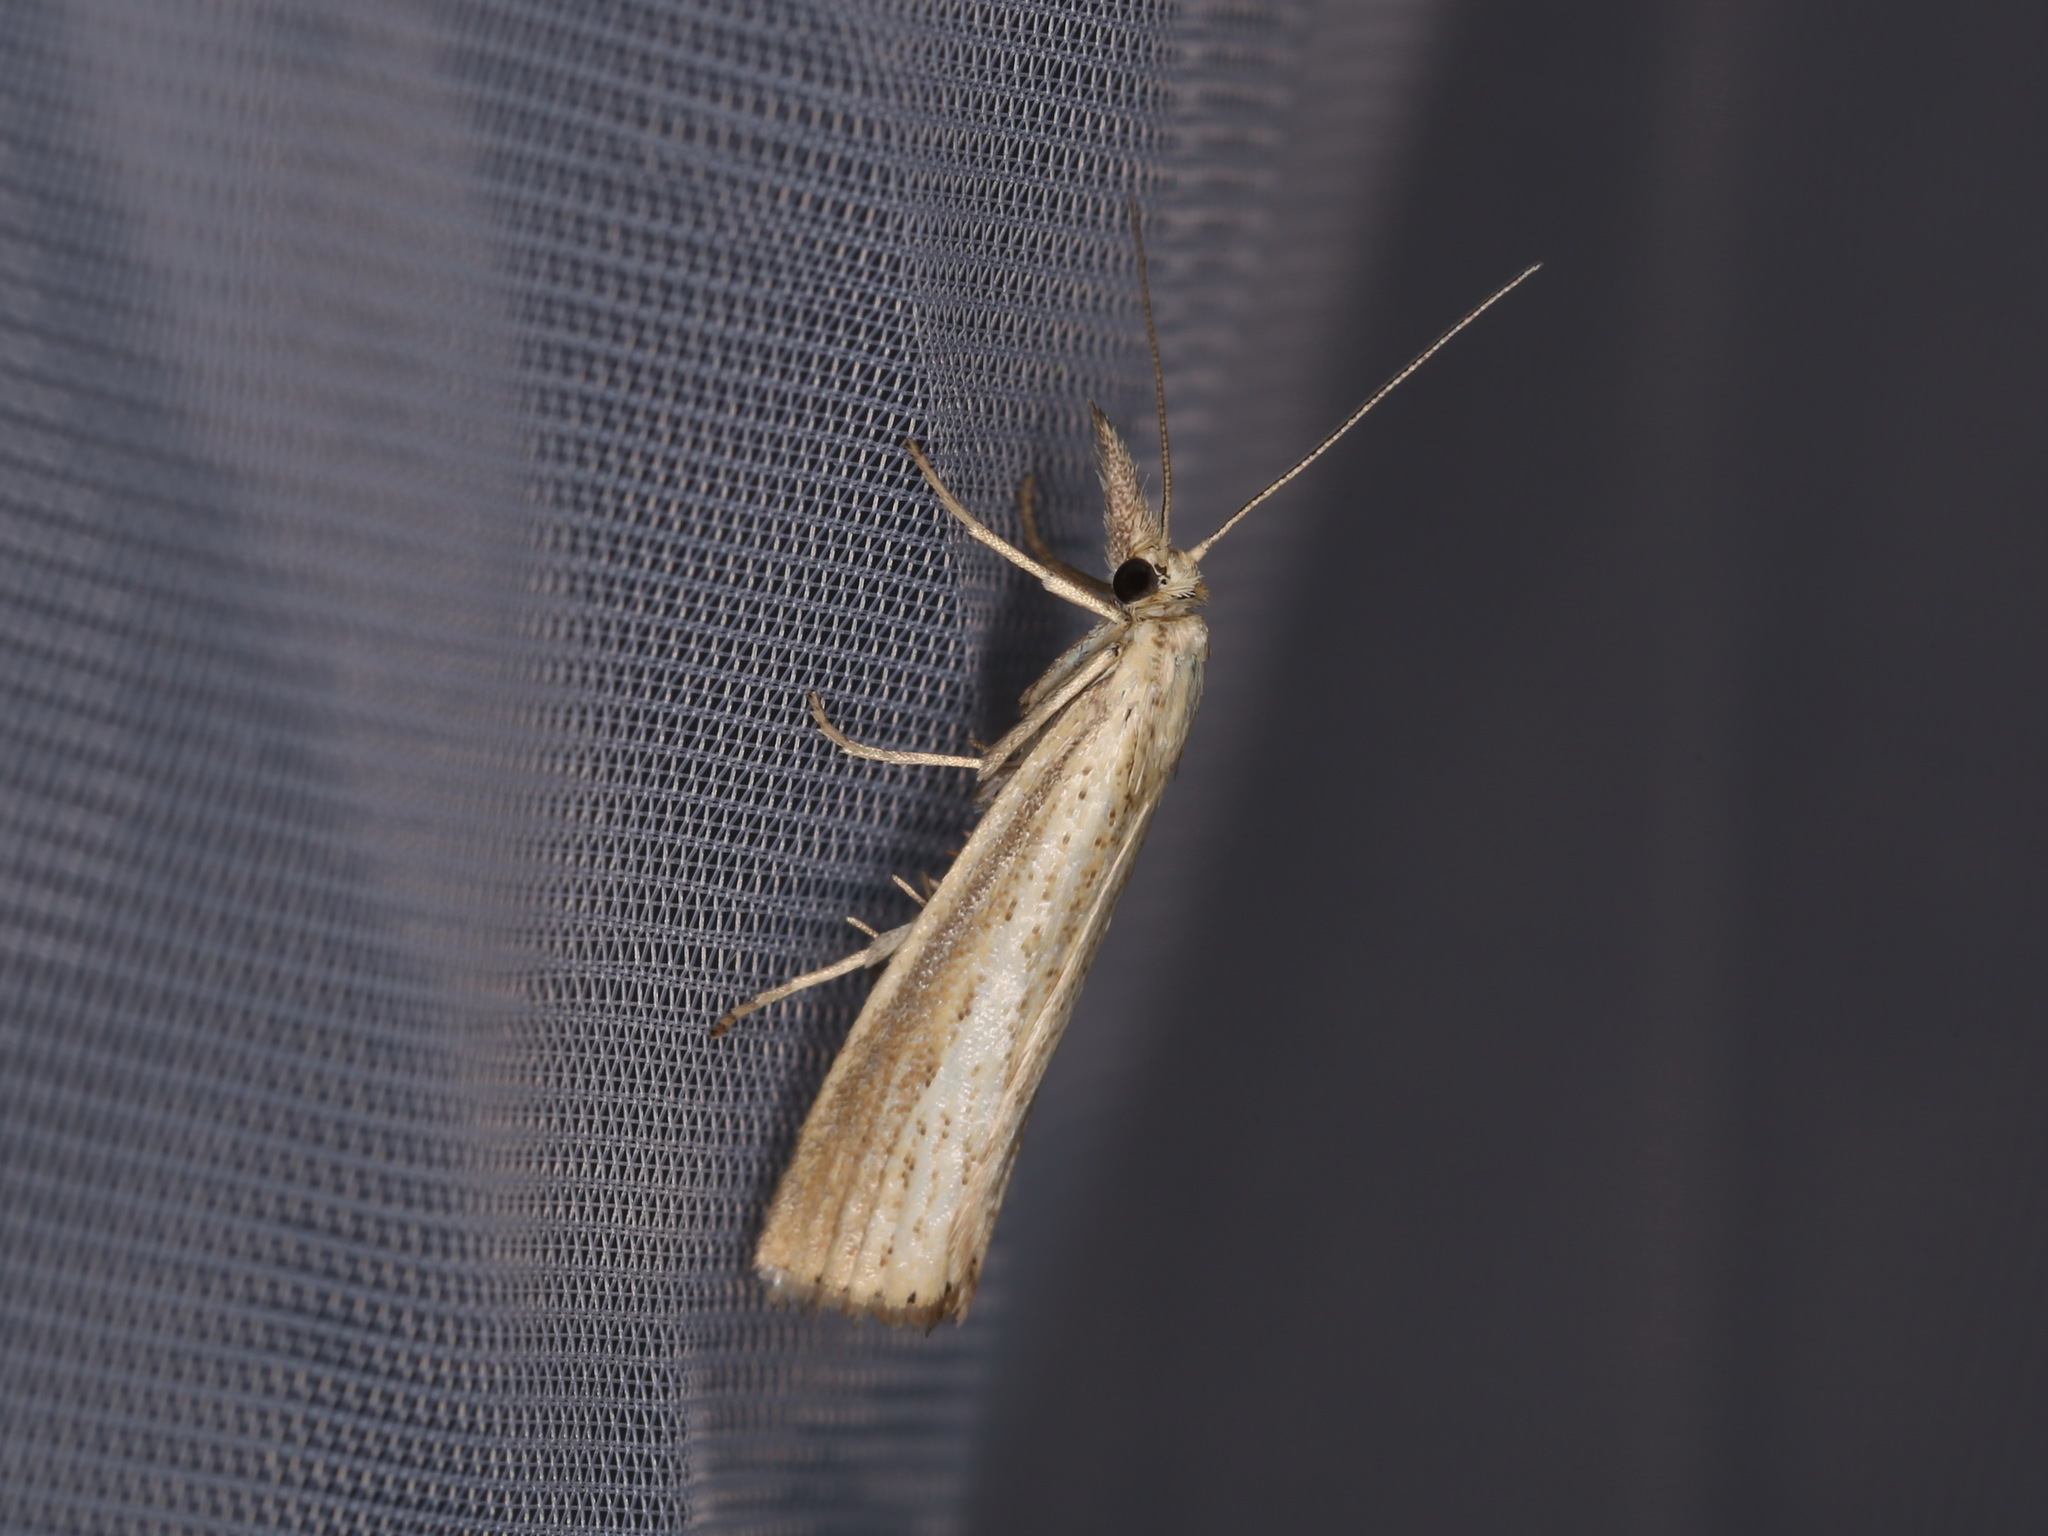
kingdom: Animalia
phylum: Arthropoda
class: Insecta
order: Lepidoptera
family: Crambidae
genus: Agriphila
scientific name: Agriphila straminella
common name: Straw grass-veneer
